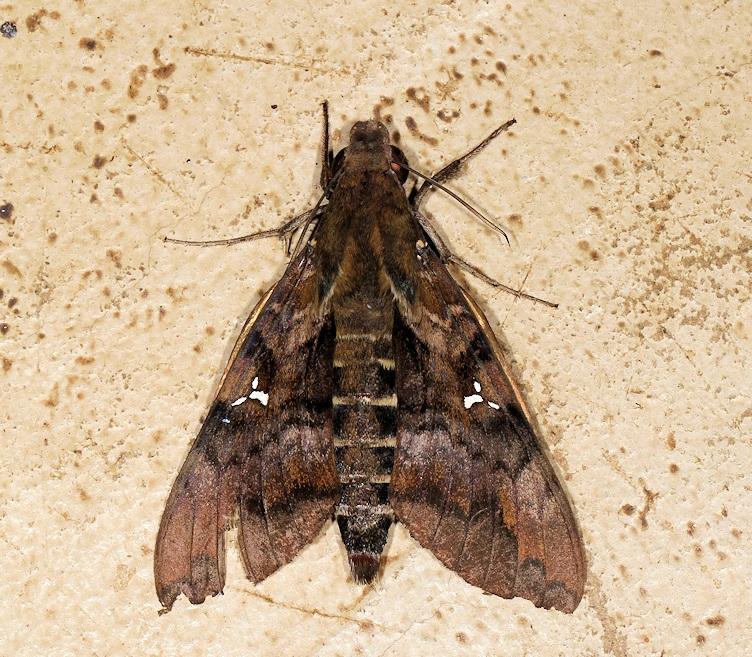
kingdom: Animalia
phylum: Arthropoda
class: Insecta
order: Lepidoptera
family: Sphingidae
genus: Nephele
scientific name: Nephele accentifera
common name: Accented hawk-moth
